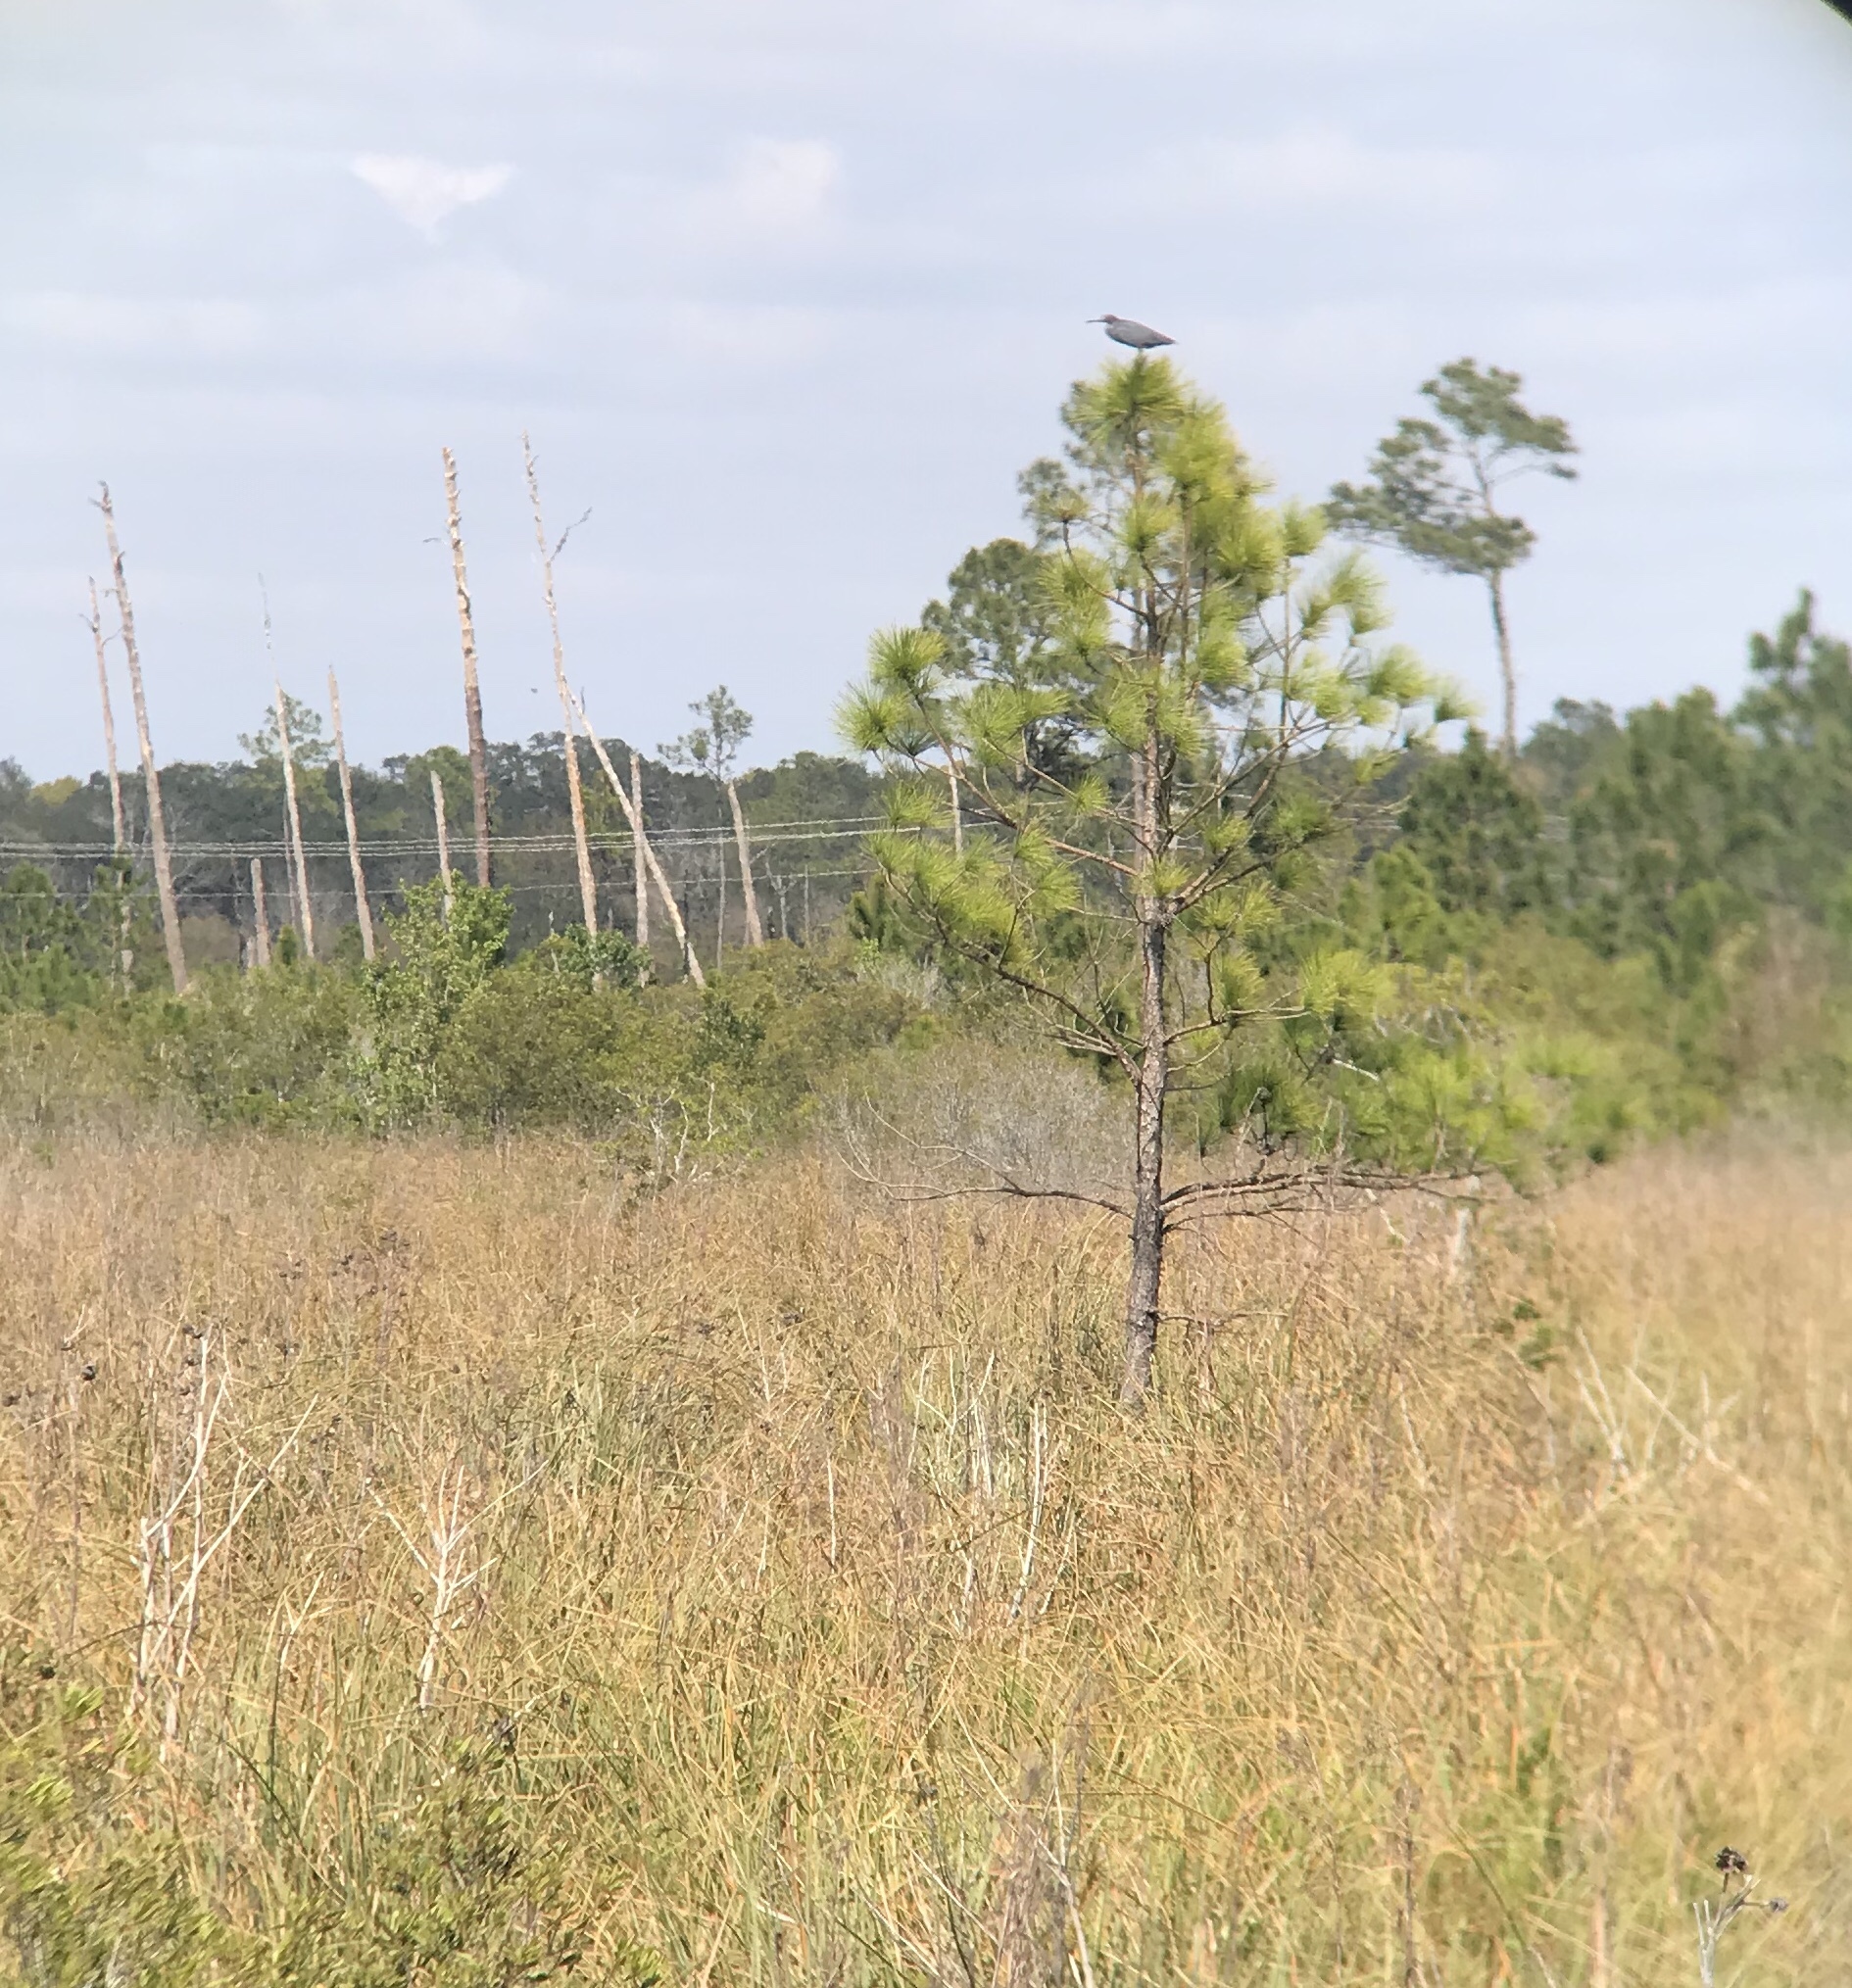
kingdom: Animalia
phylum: Chordata
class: Aves
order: Pelecaniformes
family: Ardeidae
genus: Egretta
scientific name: Egretta rufescens
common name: Reddish egret
